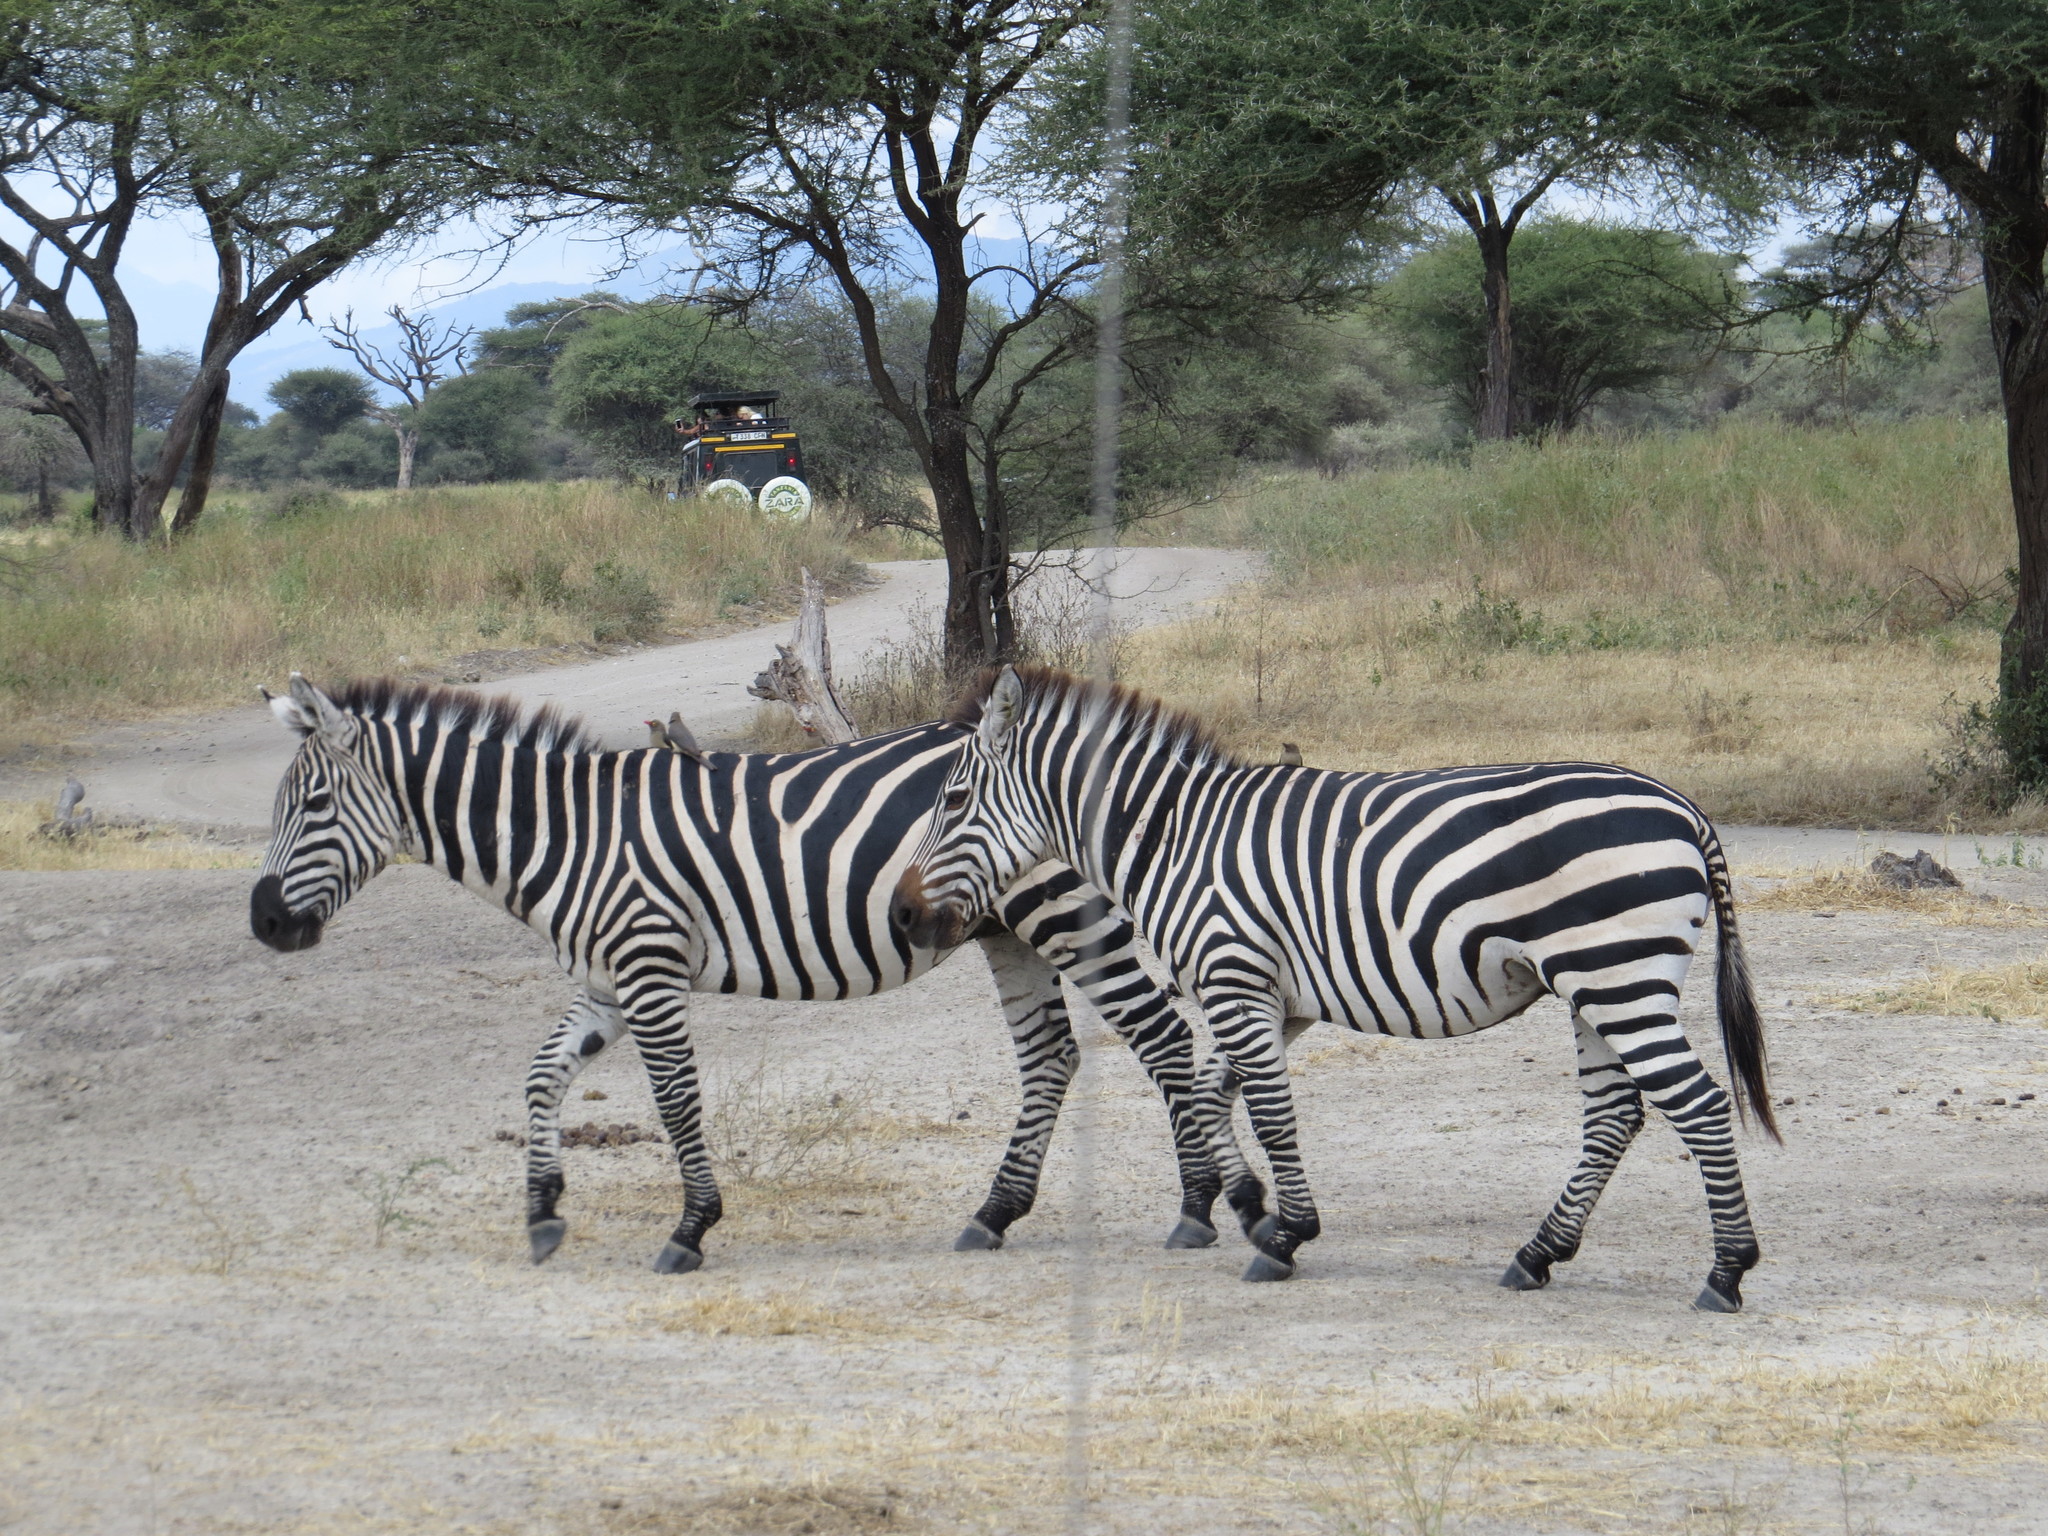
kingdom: Animalia
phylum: Chordata
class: Mammalia
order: Perissodactyla
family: Equidae
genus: Equus
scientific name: Equus quagga
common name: Plains zebra
